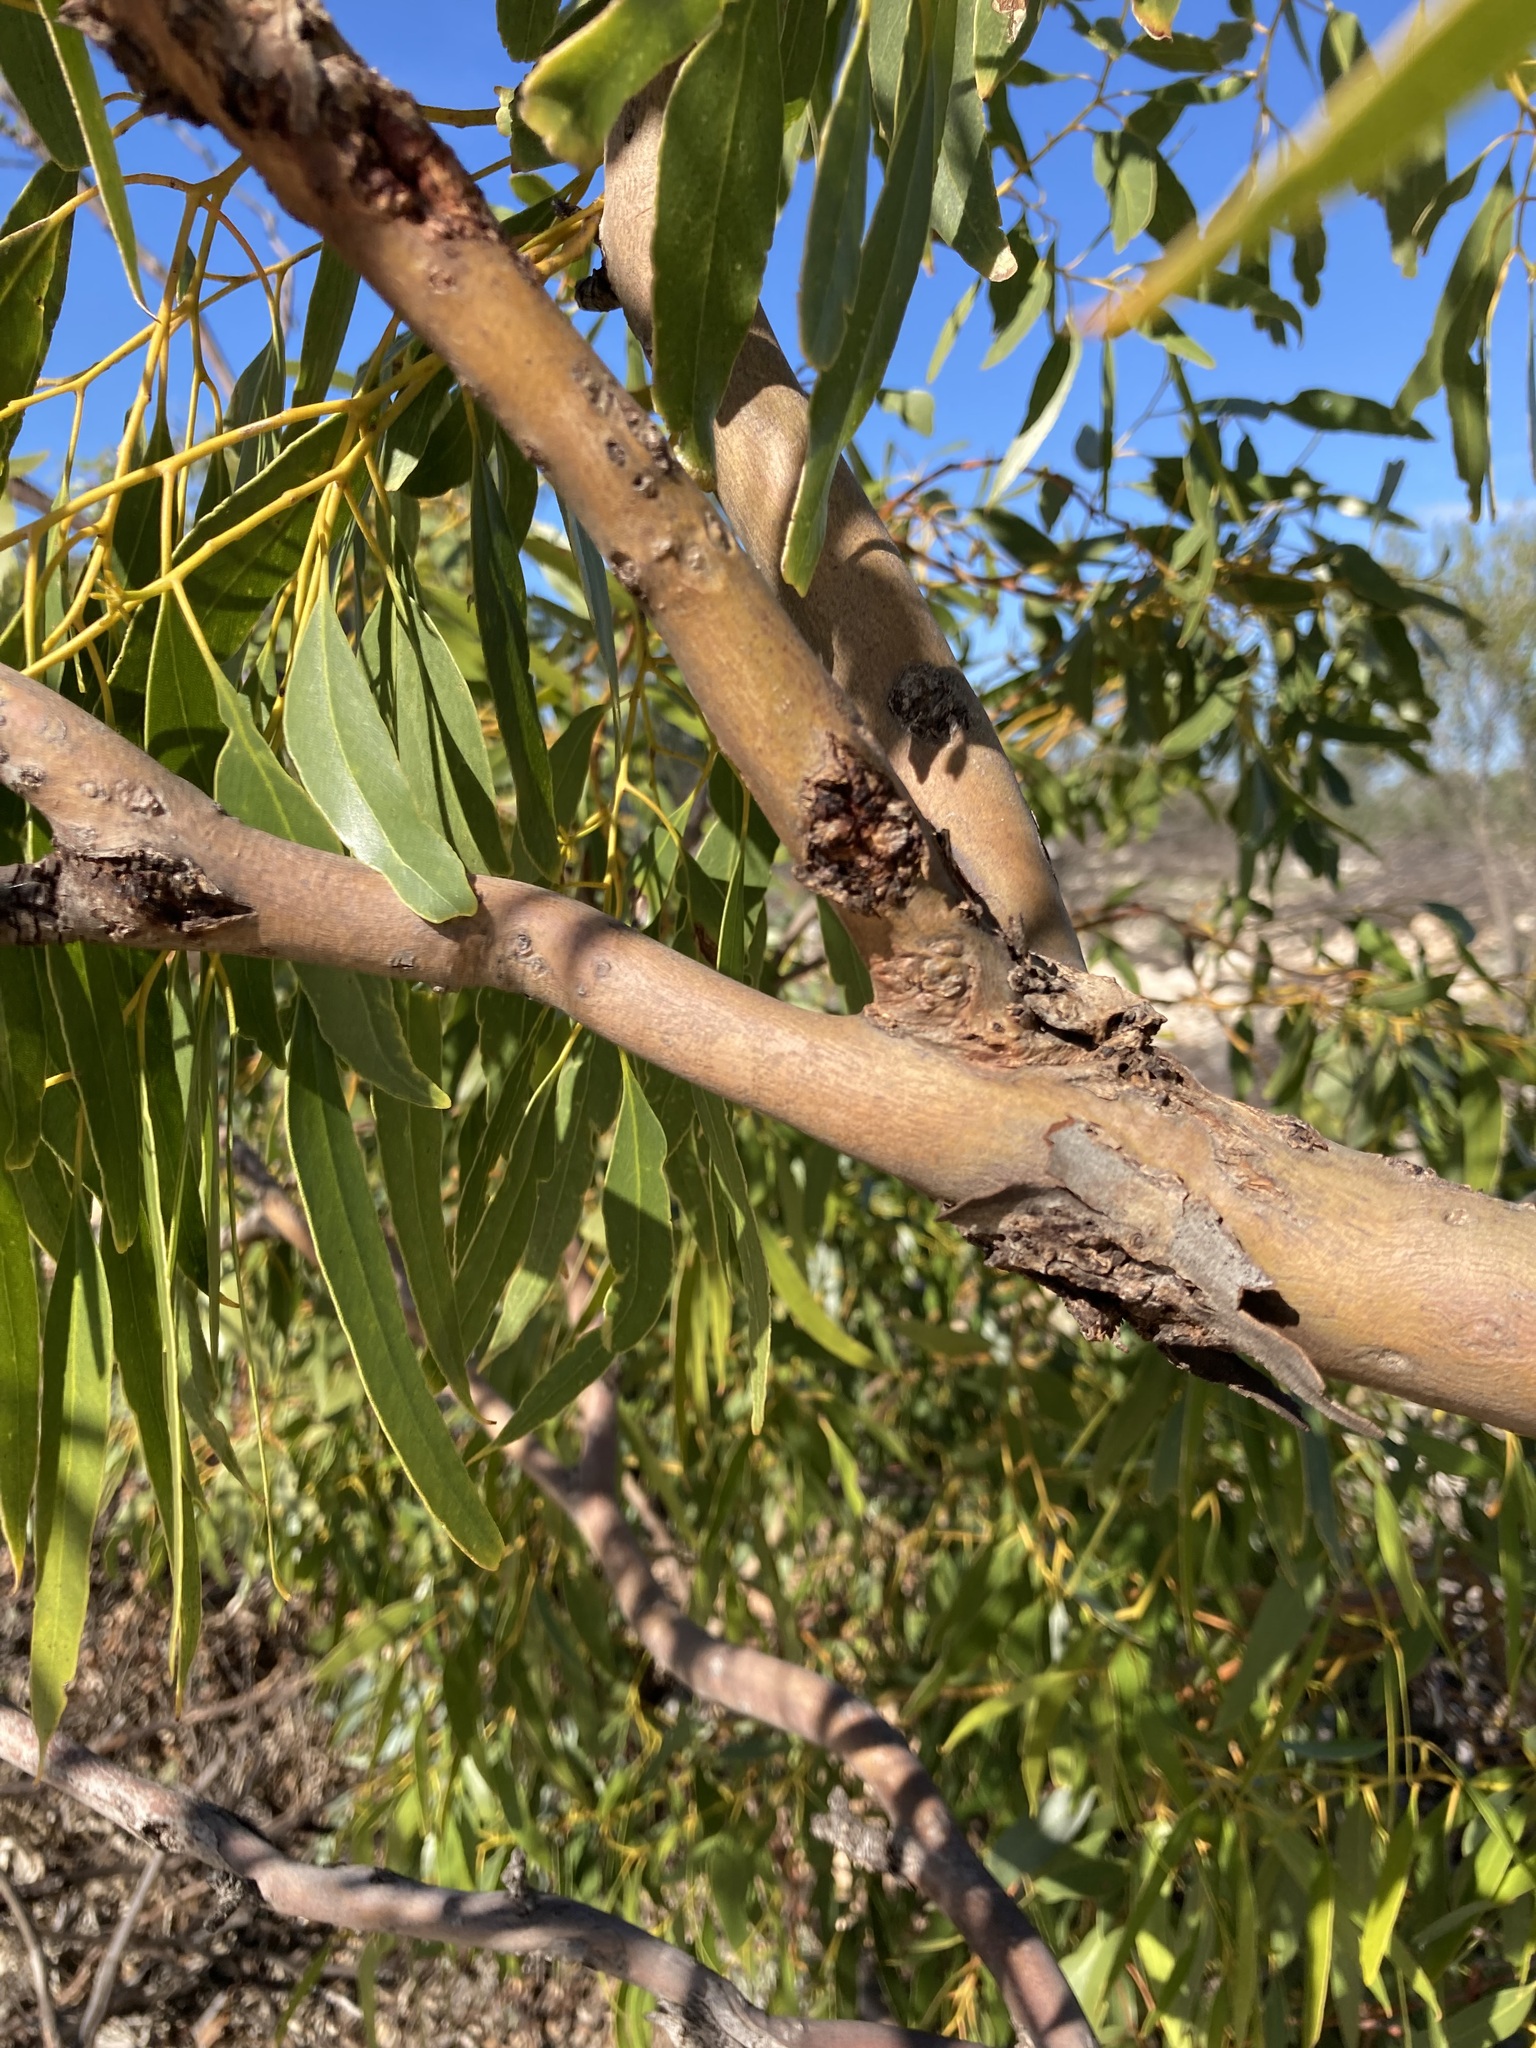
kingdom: Plantae
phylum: Tracheophyta
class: Magnoliopsida
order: Myrtales
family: Myrtaceae
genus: Eucalyptus
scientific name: Eucalyptus oraria
